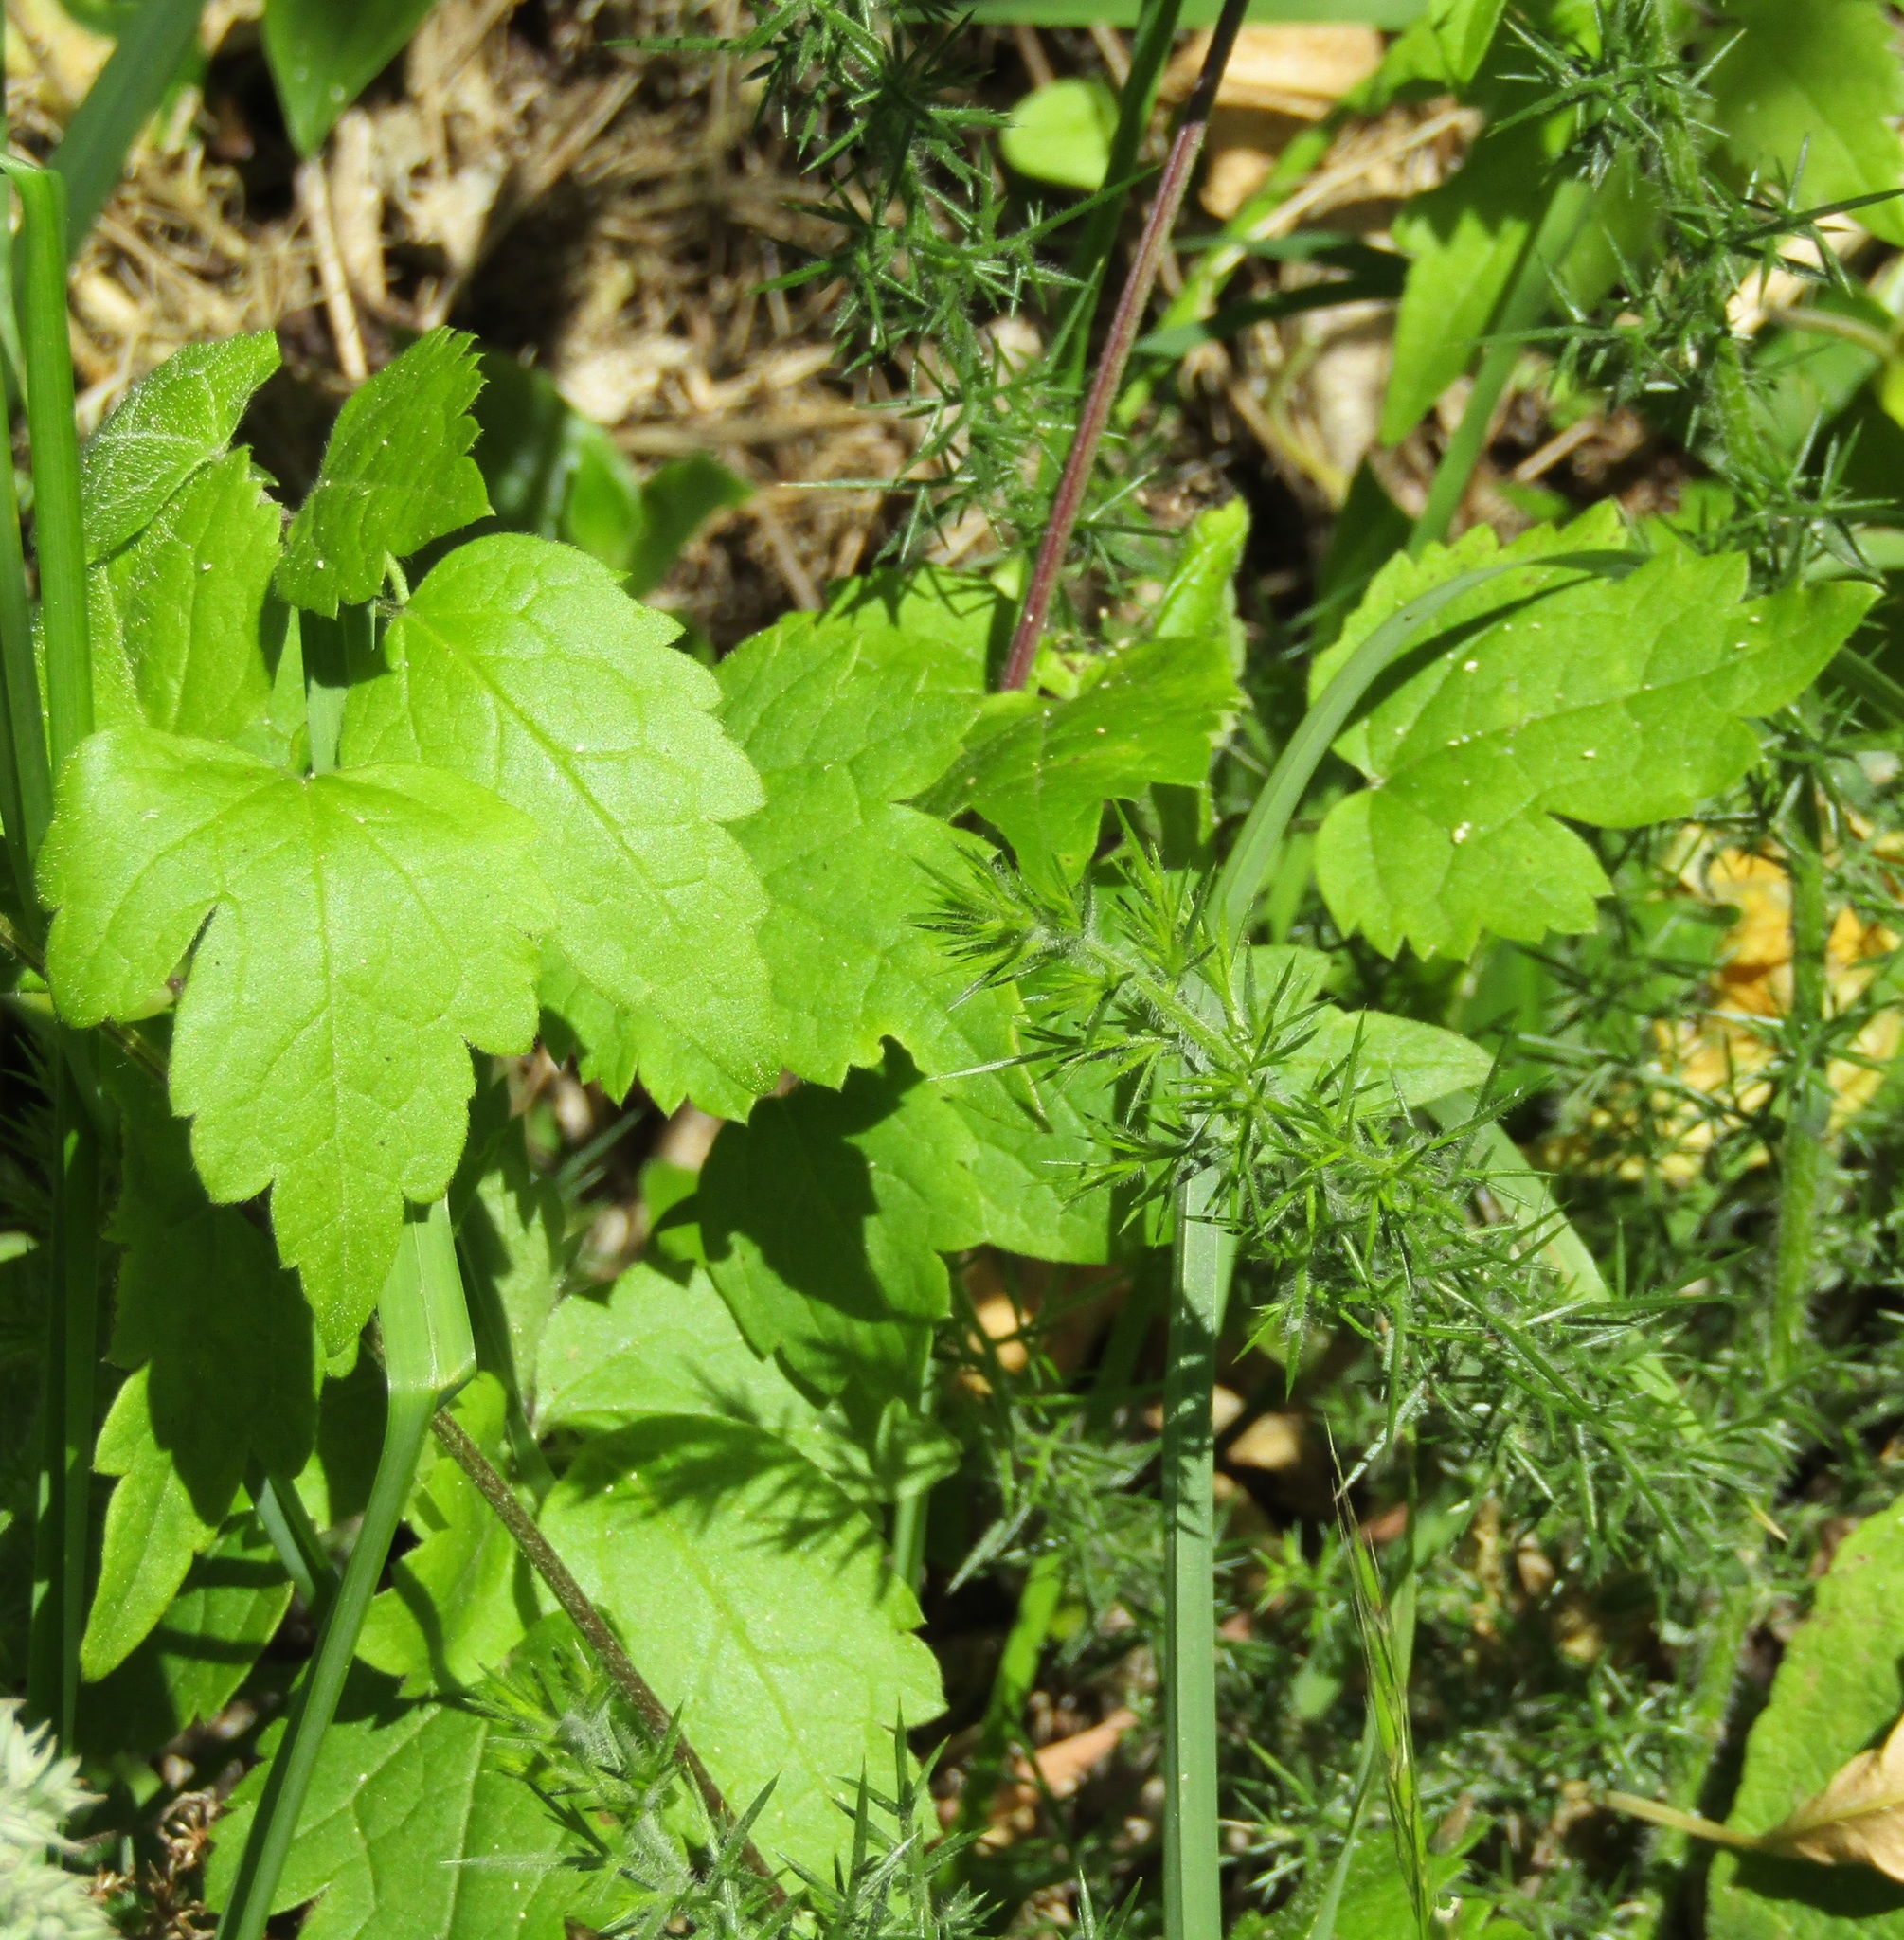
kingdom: Plantae
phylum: Tracheophyta
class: Magnoliopsida
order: Ranunculales
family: Ranunculaceae
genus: Clematis
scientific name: Clematis vitalba
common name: Evergreen clematis
